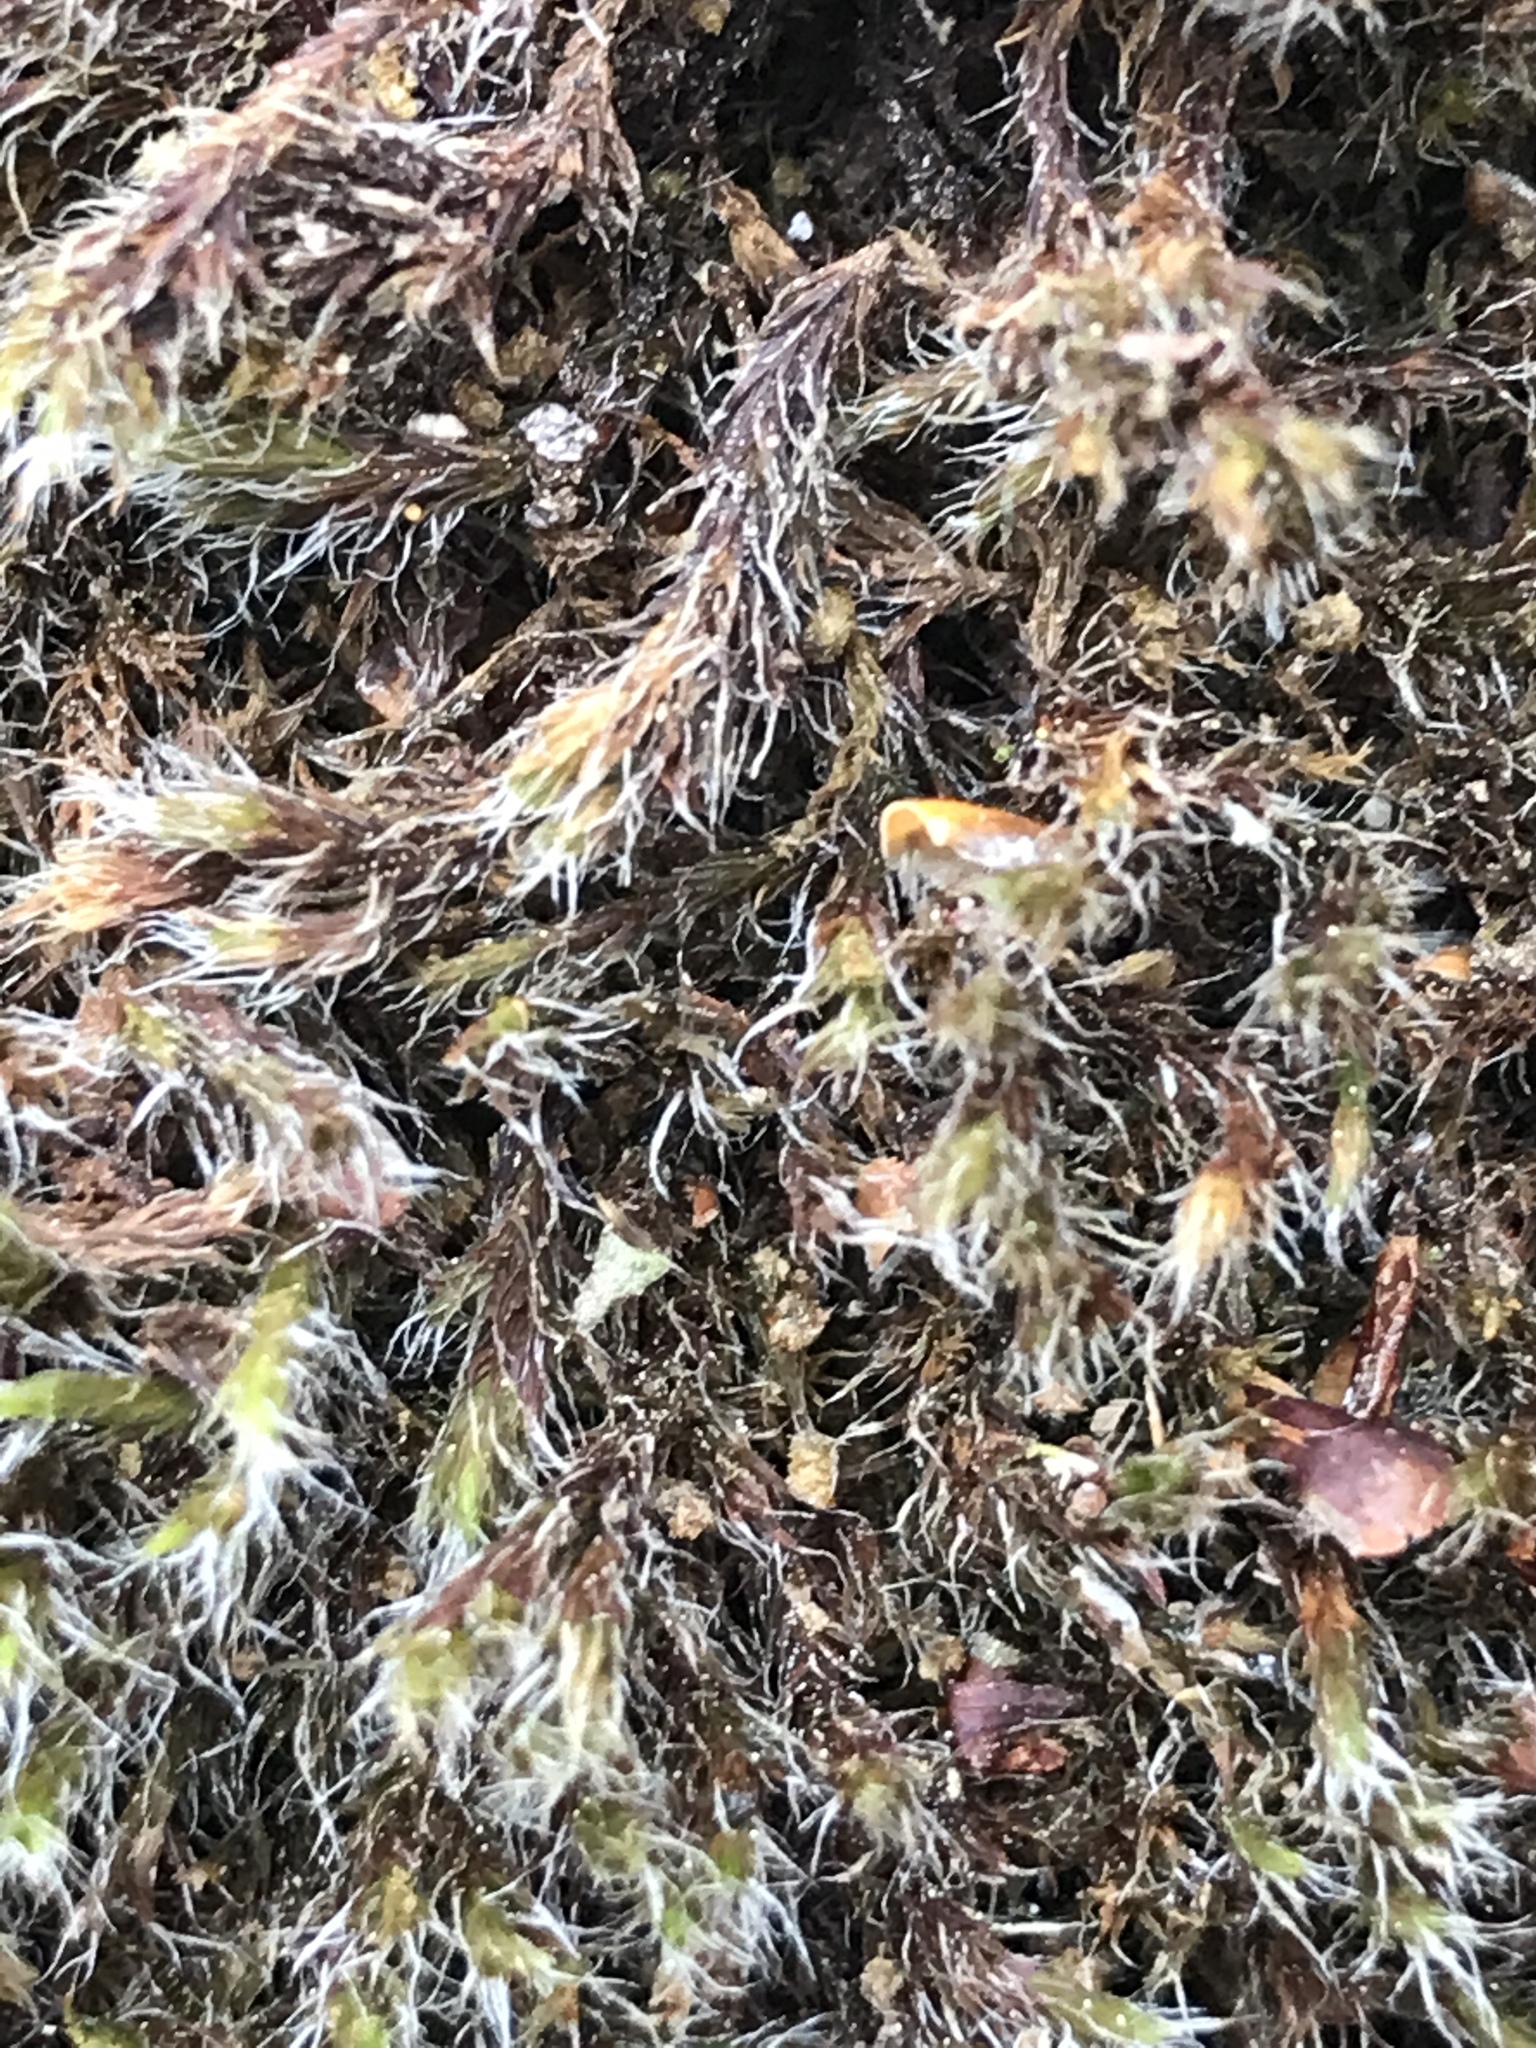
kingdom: Plantae
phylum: Bryophyta
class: Bryopsida
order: Grimmiales
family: Grimmiaceae
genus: Racomitrium
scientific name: Racomitrium lanuginosum
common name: Hoary rock moss
